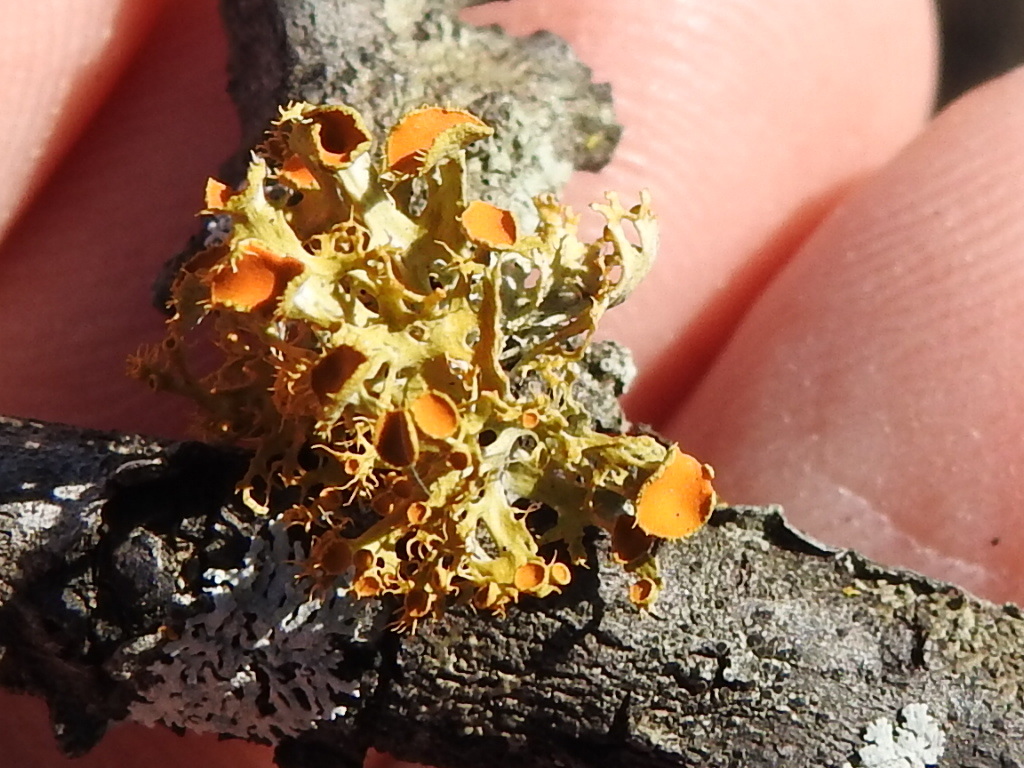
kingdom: Fungi
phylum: Ascomycota
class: Lecanoromycetes
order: Teloschistales
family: Teloschistaceae
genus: Niorma
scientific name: Niorma chrysophthalma
